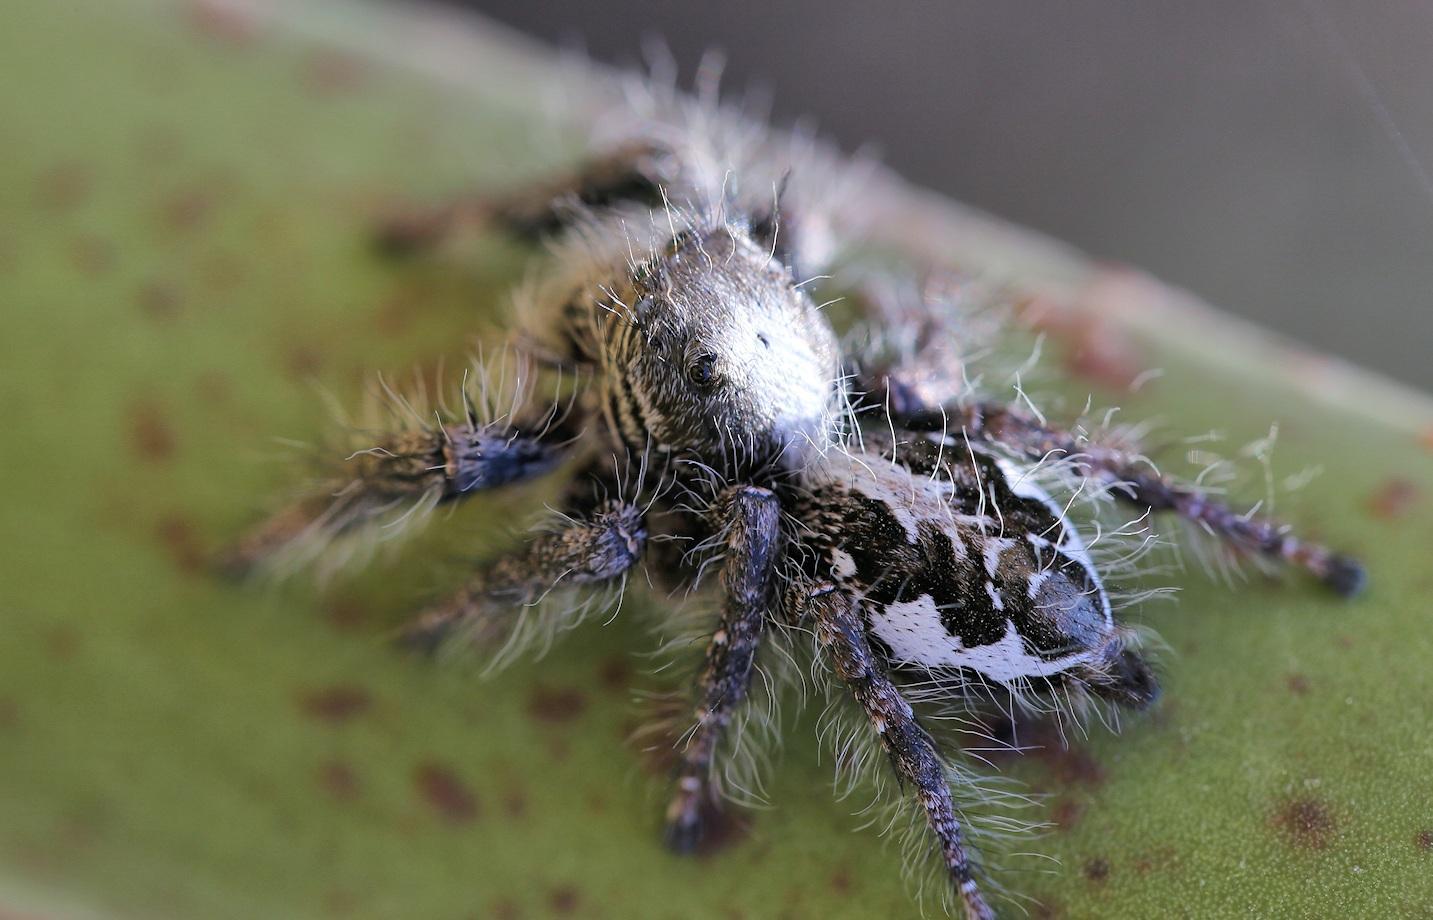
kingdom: Animalia
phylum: Arthropoda
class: Arachnida
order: Araneae
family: Salticidae
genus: Hyllus
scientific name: Hyllus treleaveni
